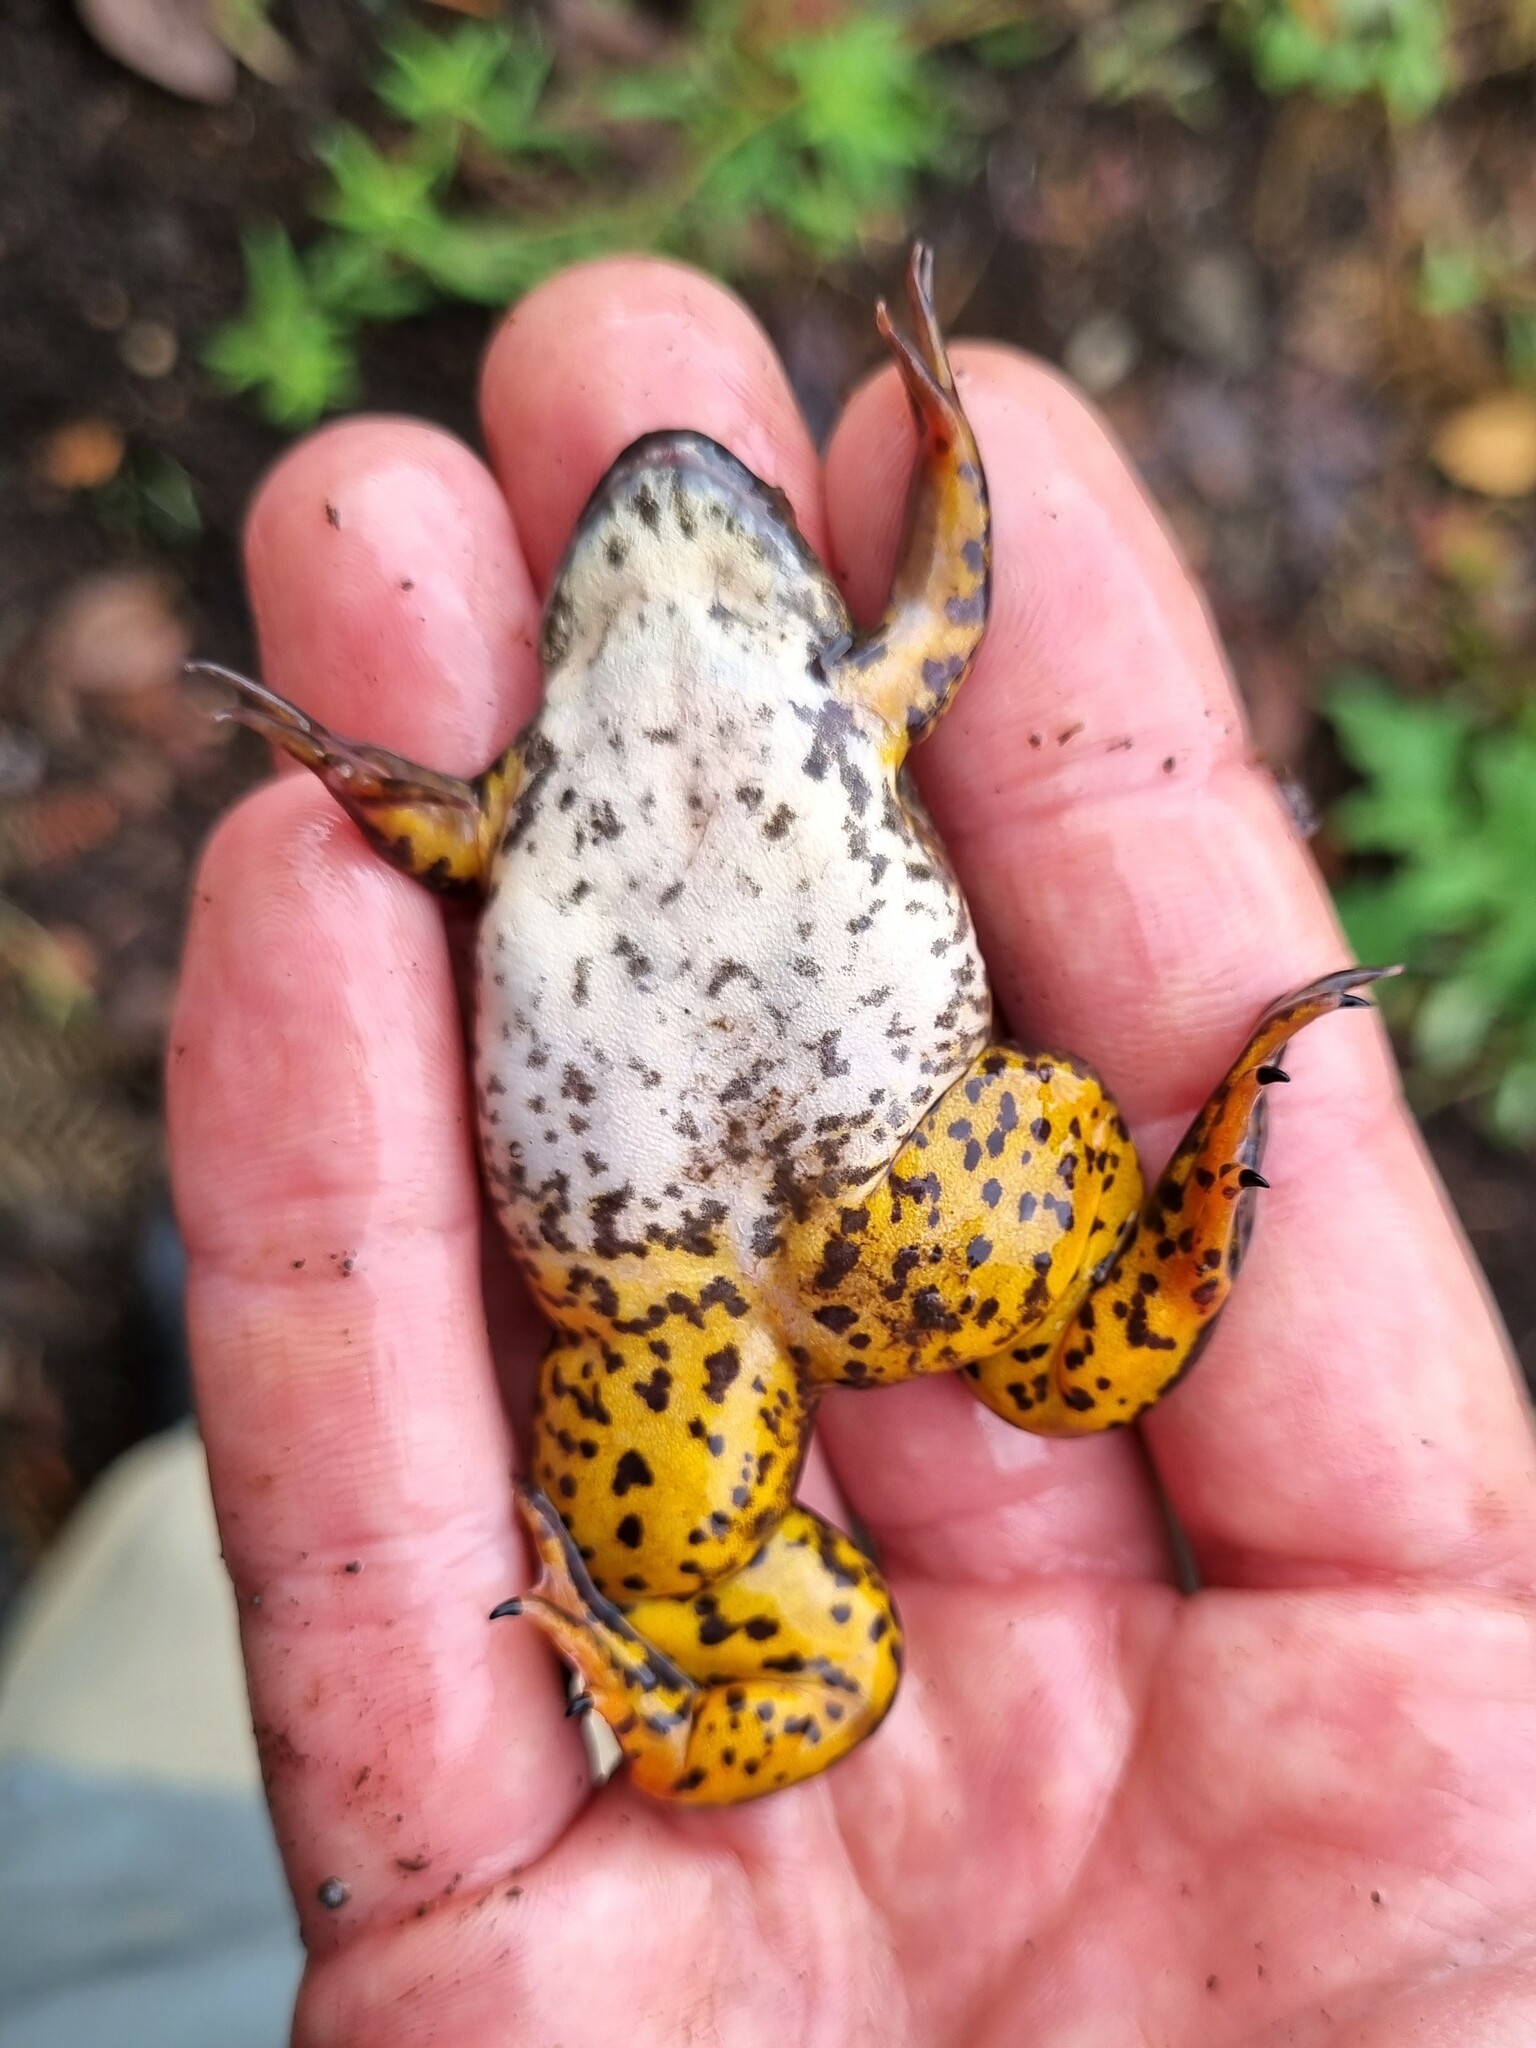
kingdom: Animalia
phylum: Chordata
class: Amphibia
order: Anura
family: Pipidae
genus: Xenopus
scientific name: Xenopus borealis
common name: Marsabit clawed frog
